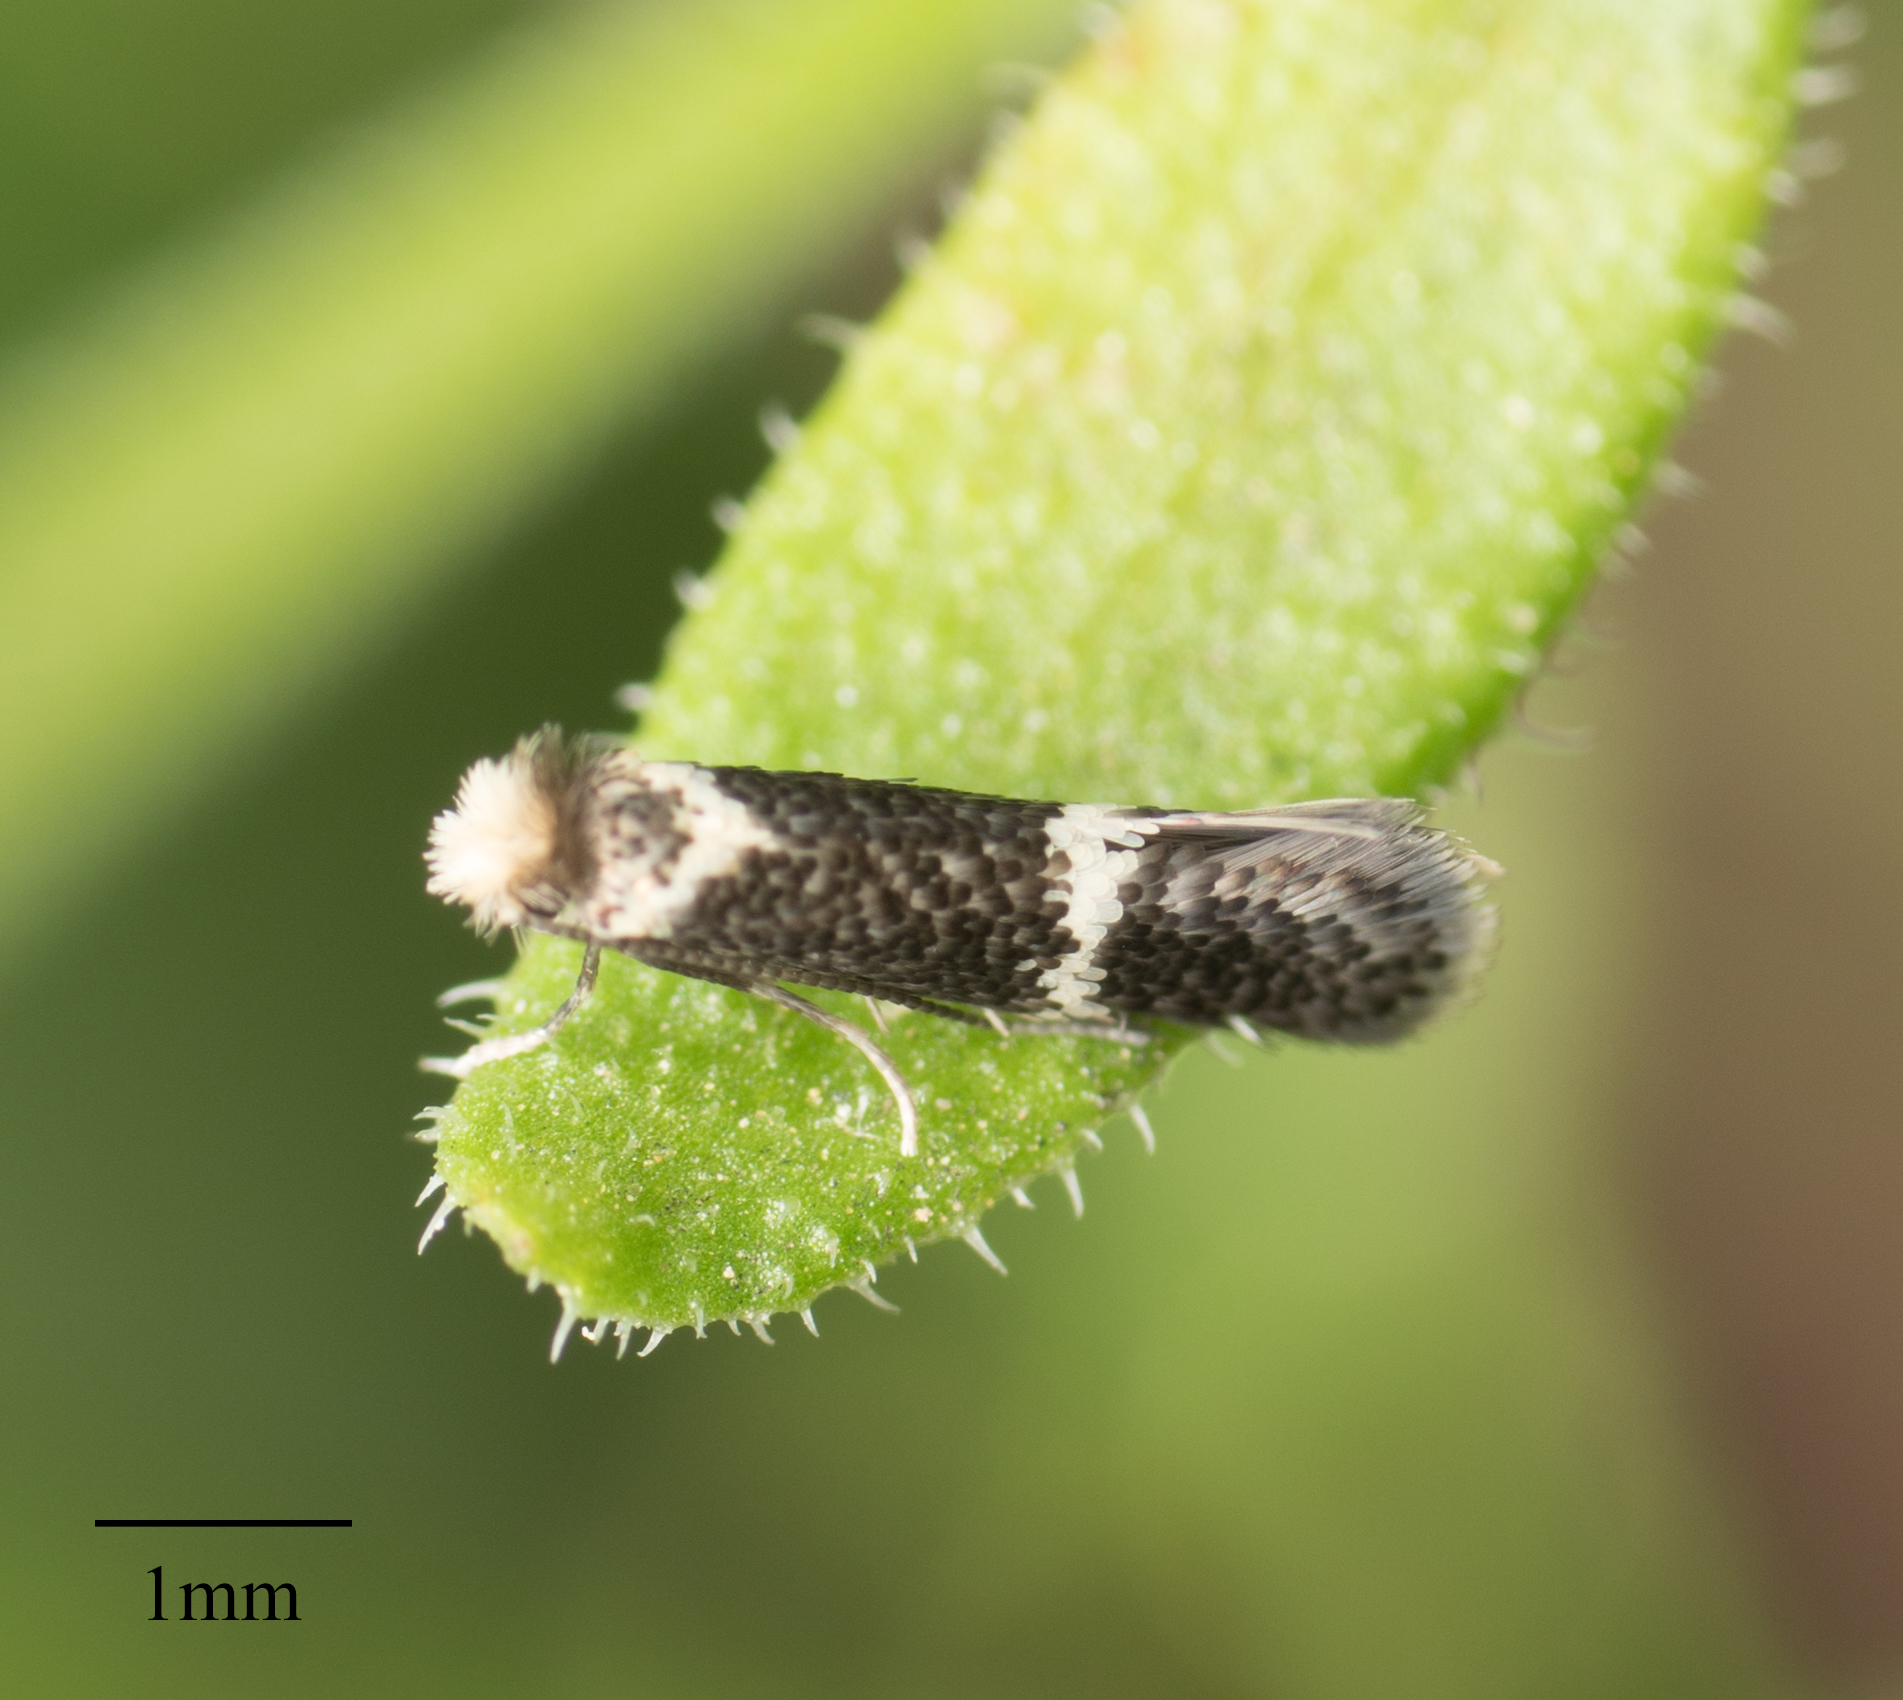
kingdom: Animalia
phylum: Arthropoda
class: Insecta
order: Lepidoptera
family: Acanthopteroctetidae
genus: Acanthopteroctetes
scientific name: Acanthopteroctetes unifascia
